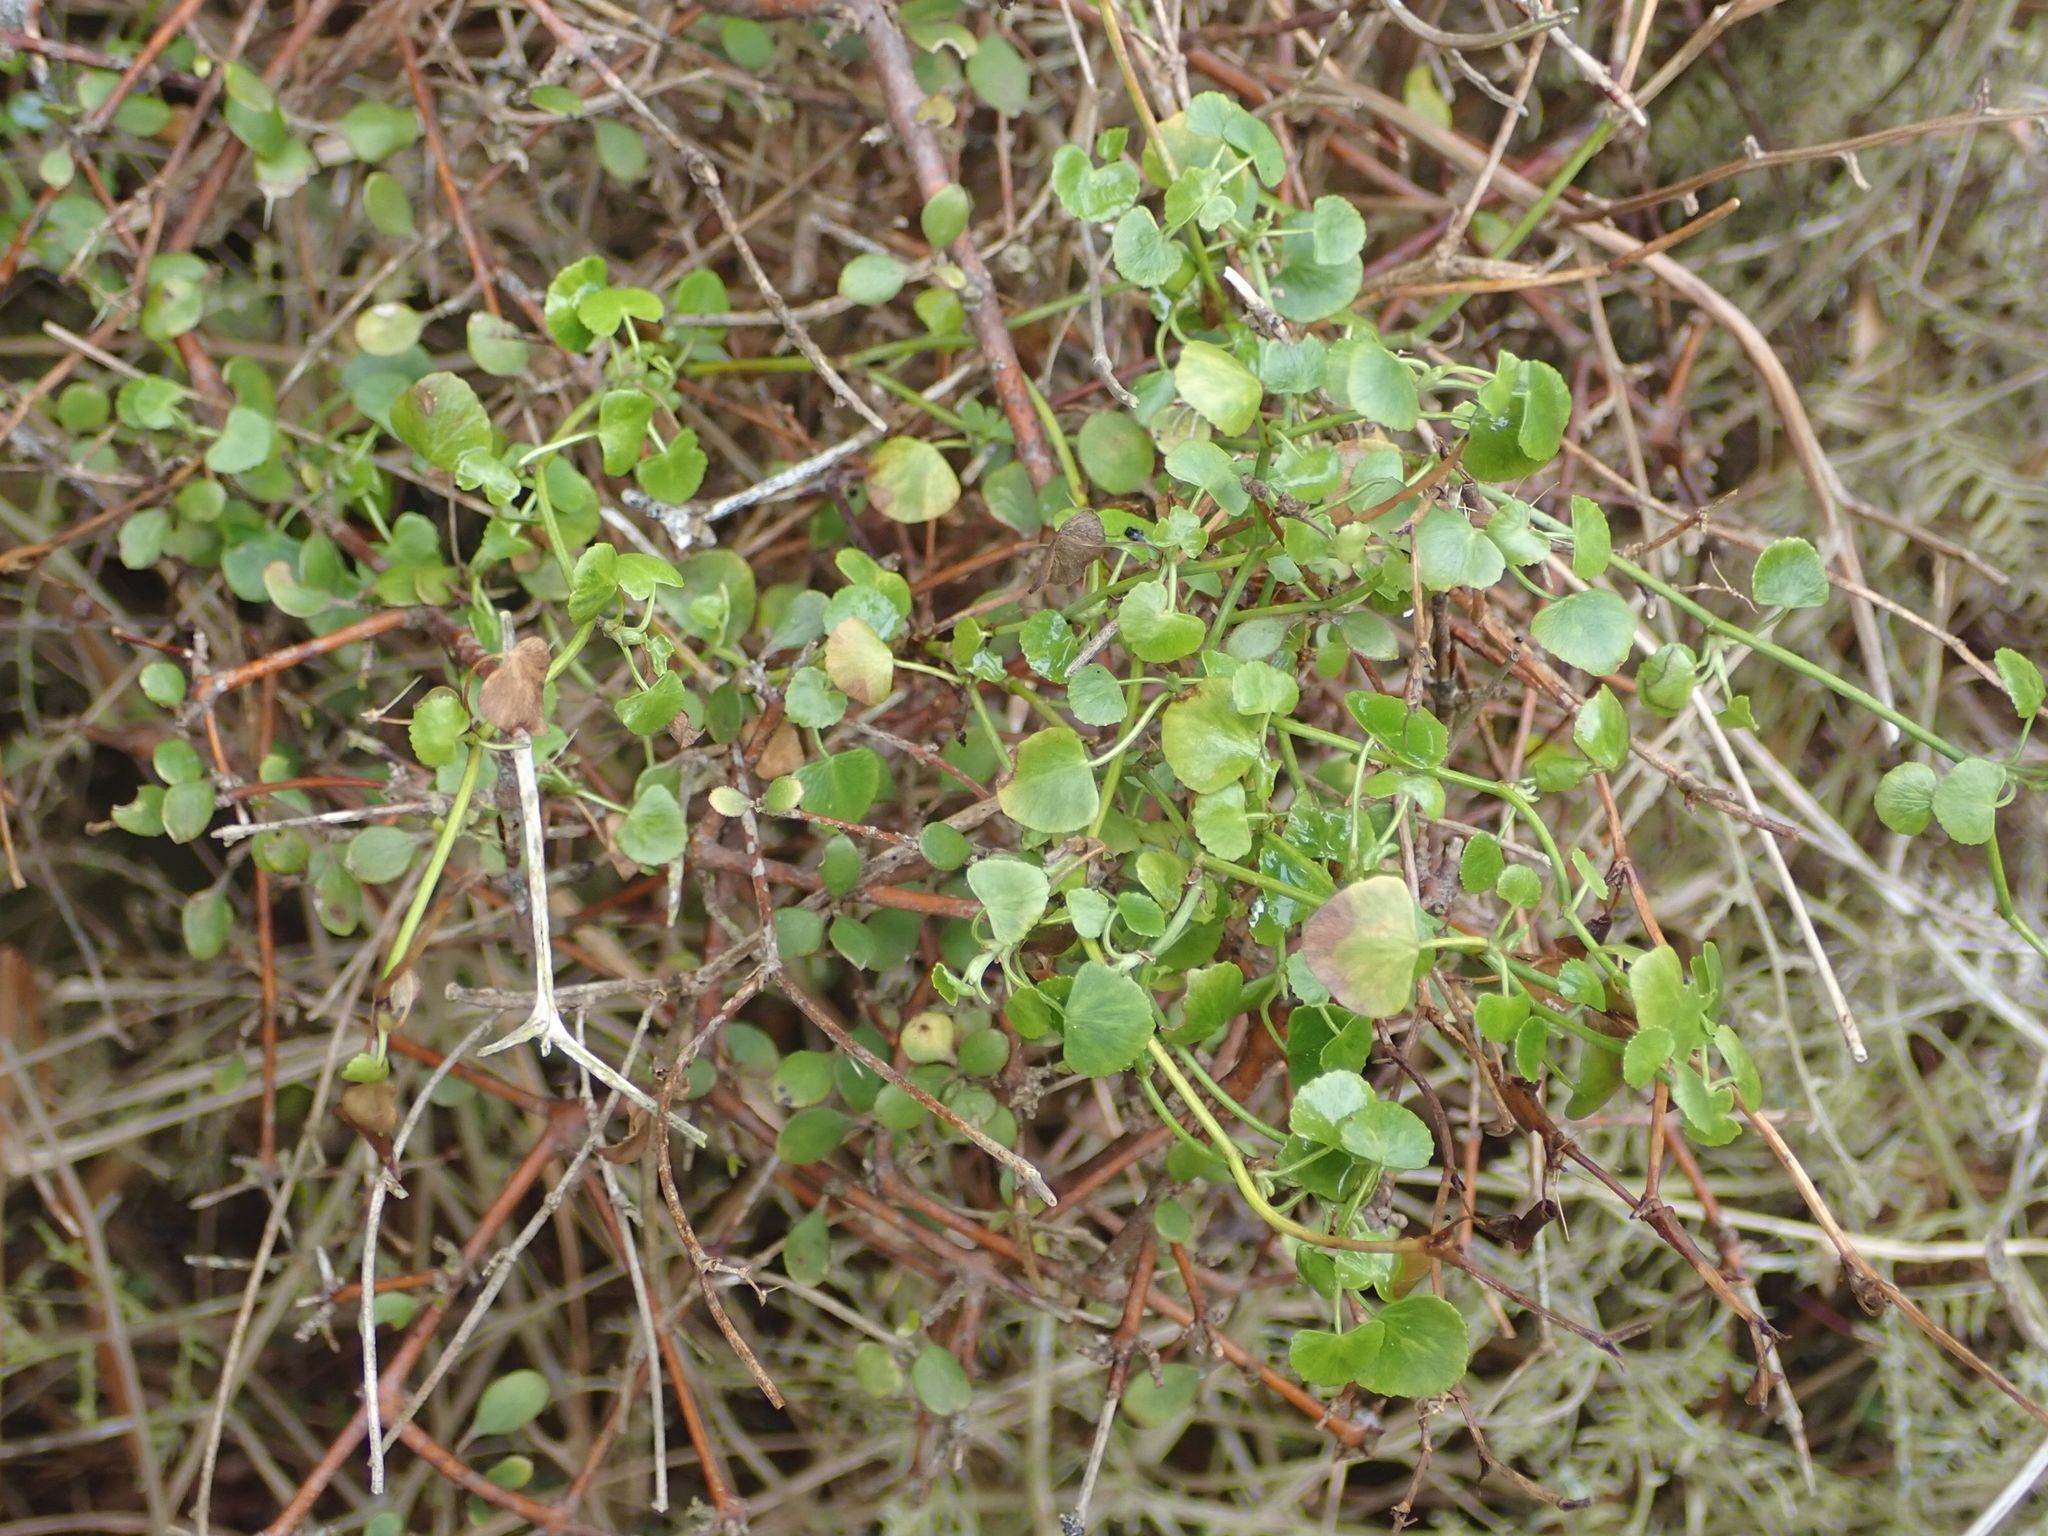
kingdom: Plantae
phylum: Tracheophyta
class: Magnoliopsida
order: Apiales
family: Apiaceae
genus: Scandia
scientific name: Scandia geniculata
